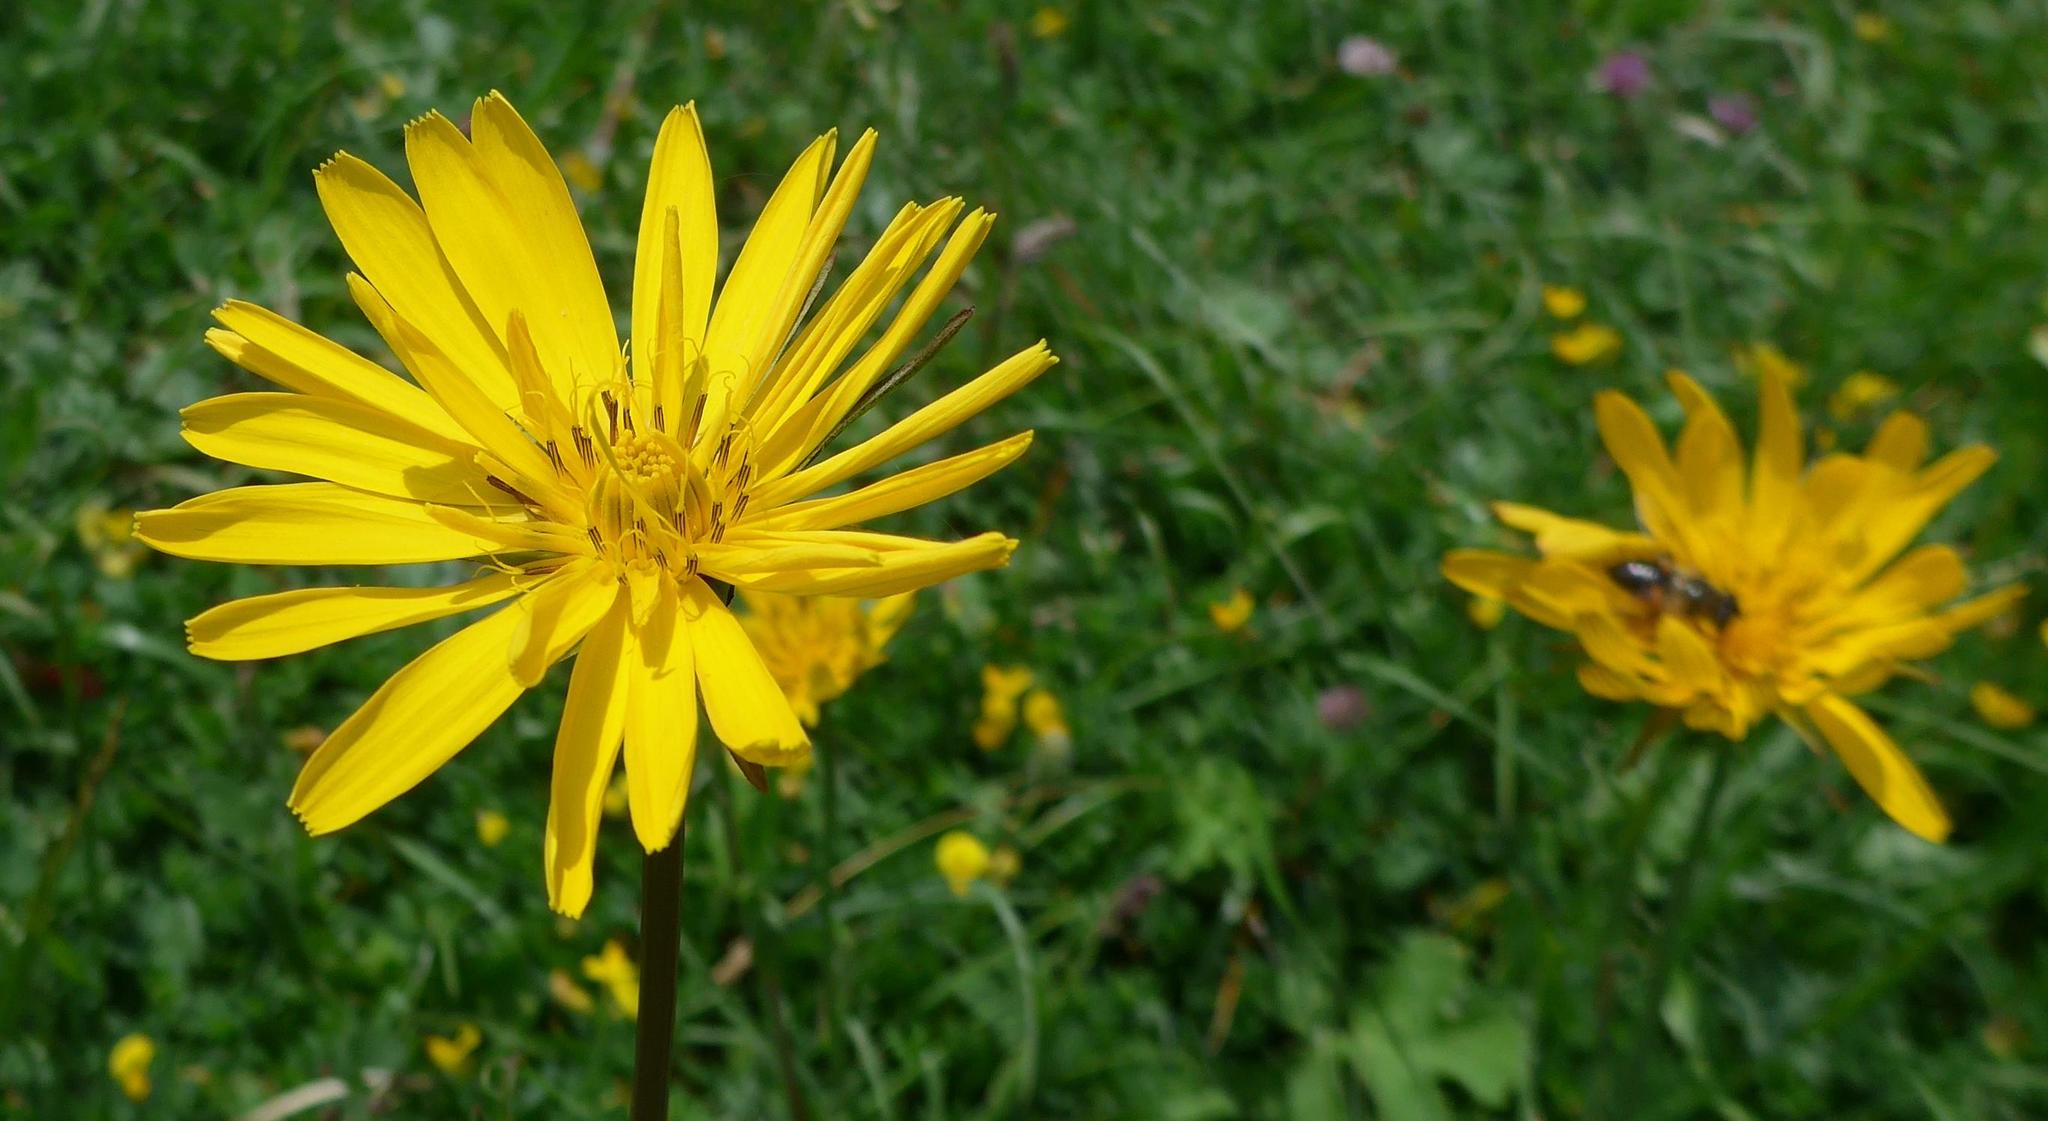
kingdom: Plantae
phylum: Tracheophyta
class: Magnoliopsida
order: Asterales
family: Asteraceae
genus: Tragopogon
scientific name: Tragopogon pratensis
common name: Goat's-beard
